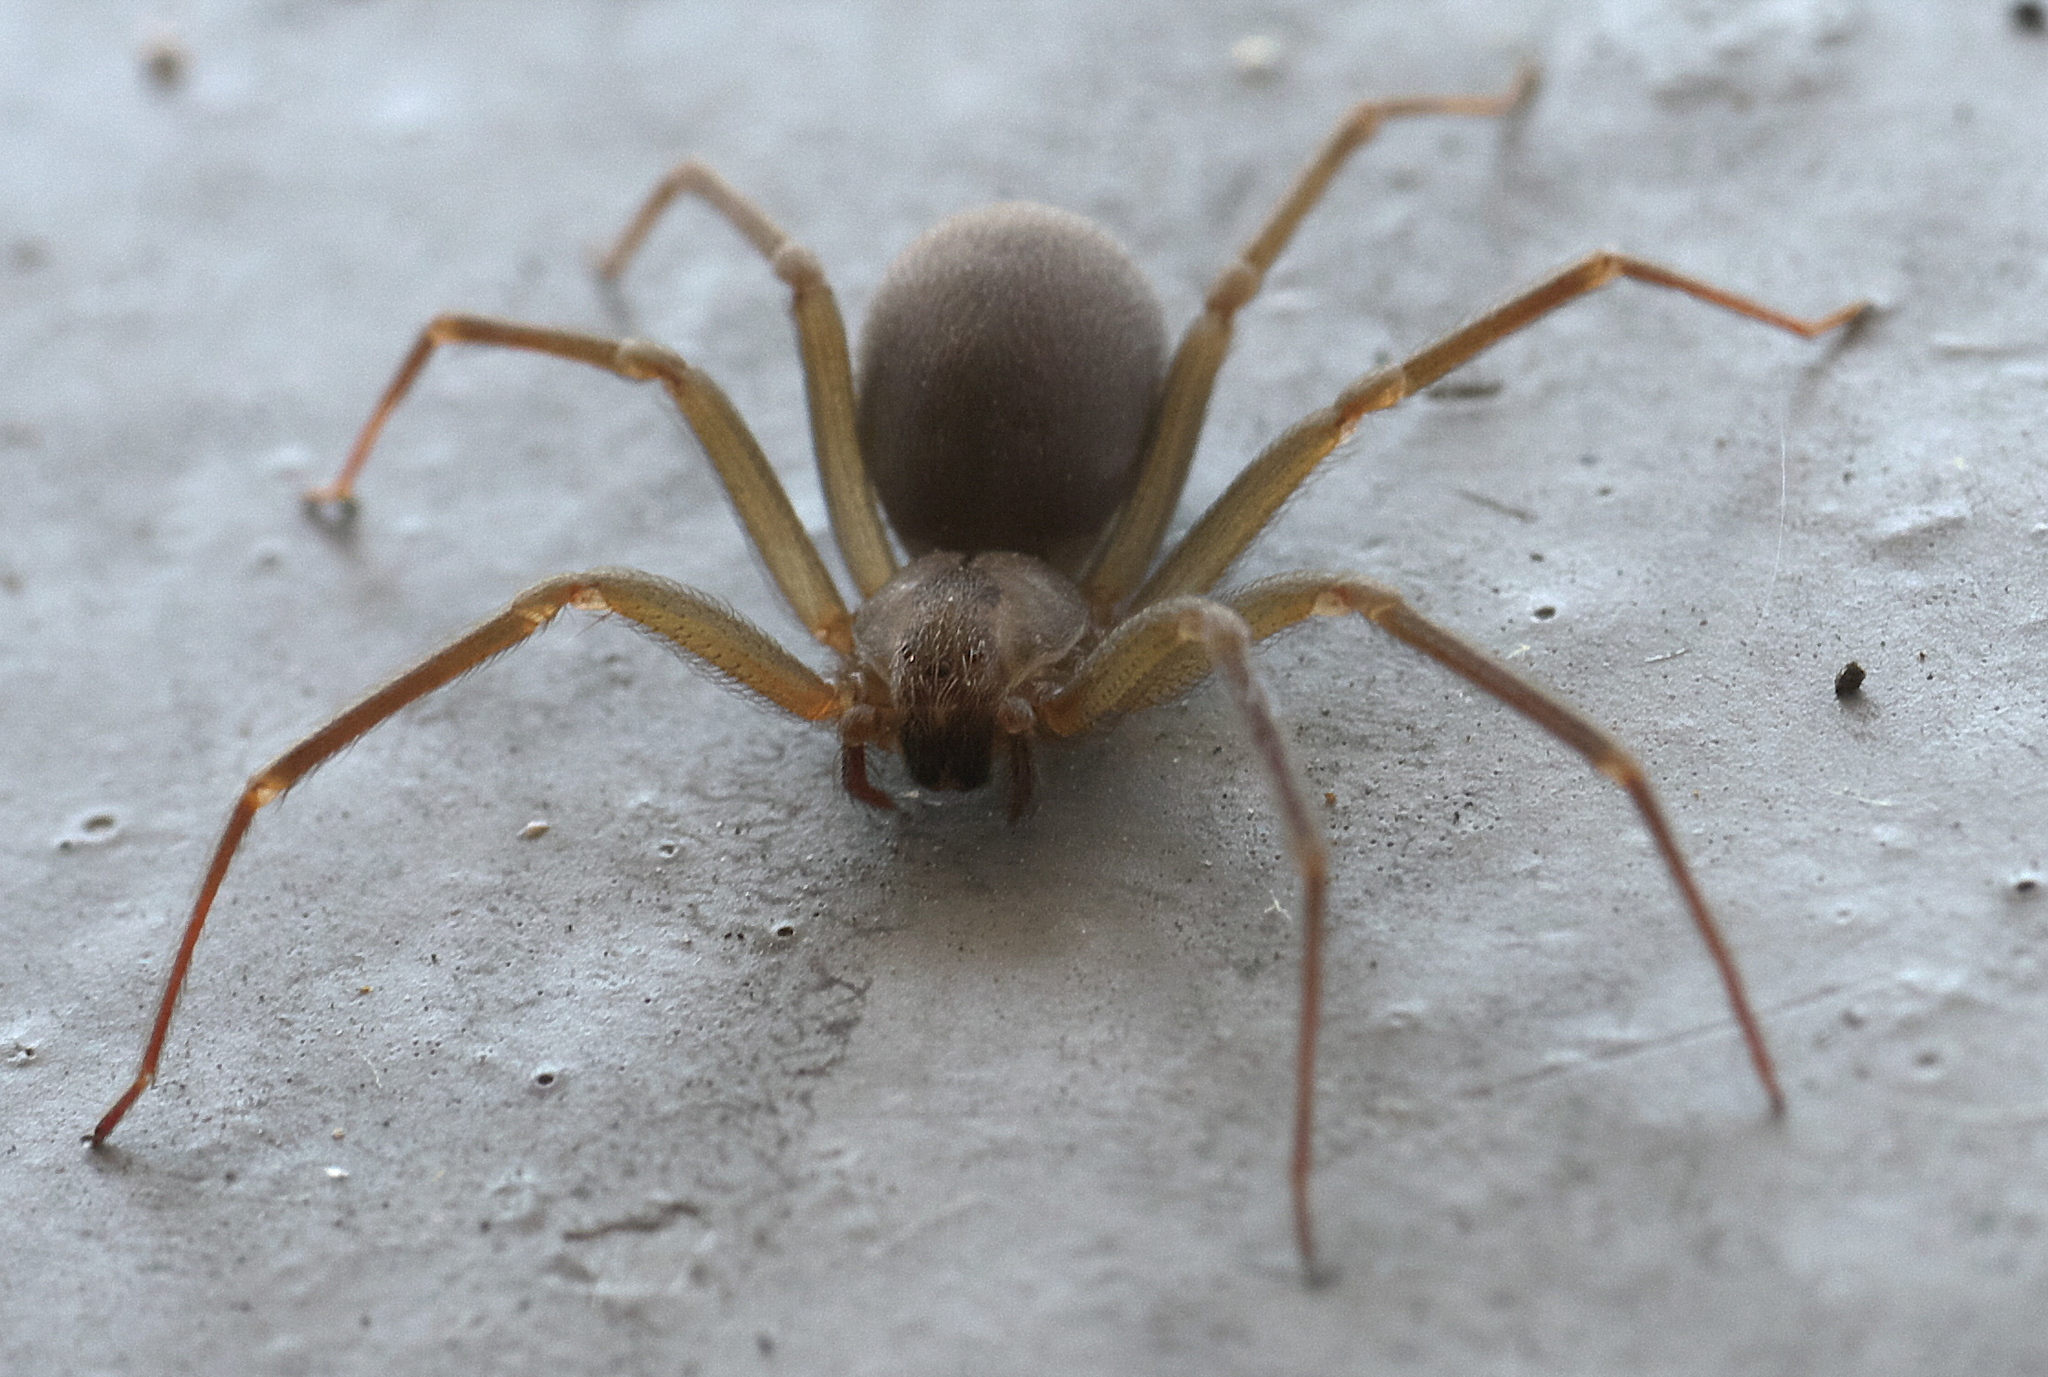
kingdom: Animalia
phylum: Arthropoda
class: Arachnida
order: Araneae
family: Sicariidae
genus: Loxosceles
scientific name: Loxosceles reclusa
